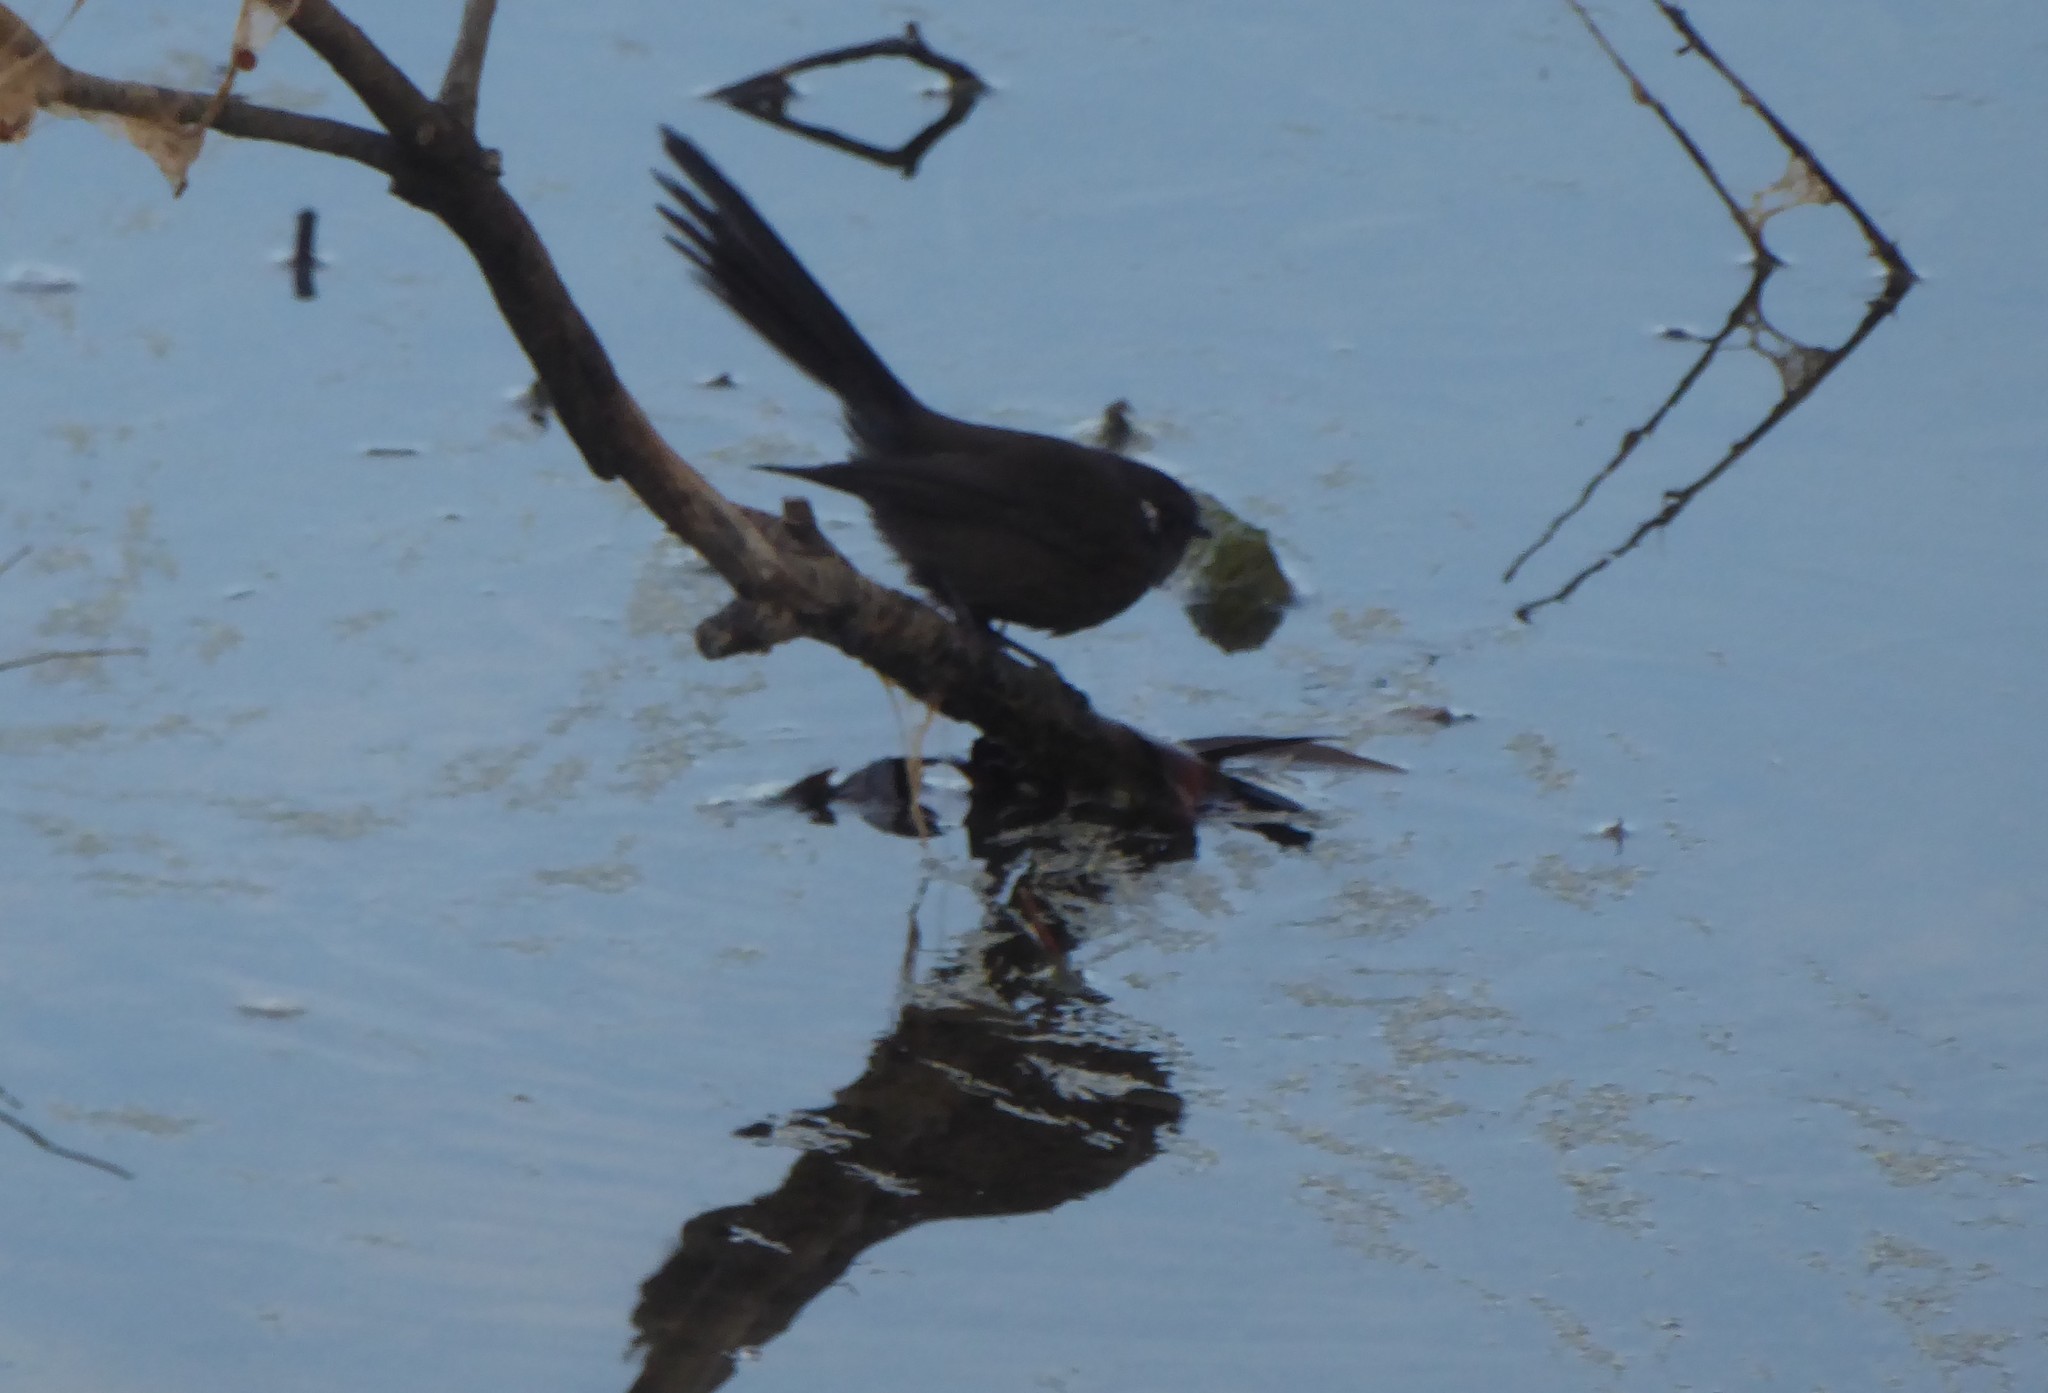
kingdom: Animalia
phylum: Chordata
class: Aves
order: Passeriformes
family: Rhipiduridae
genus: Rhipidura
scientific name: Rhipidura fuliginosa
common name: New zealand fantail
